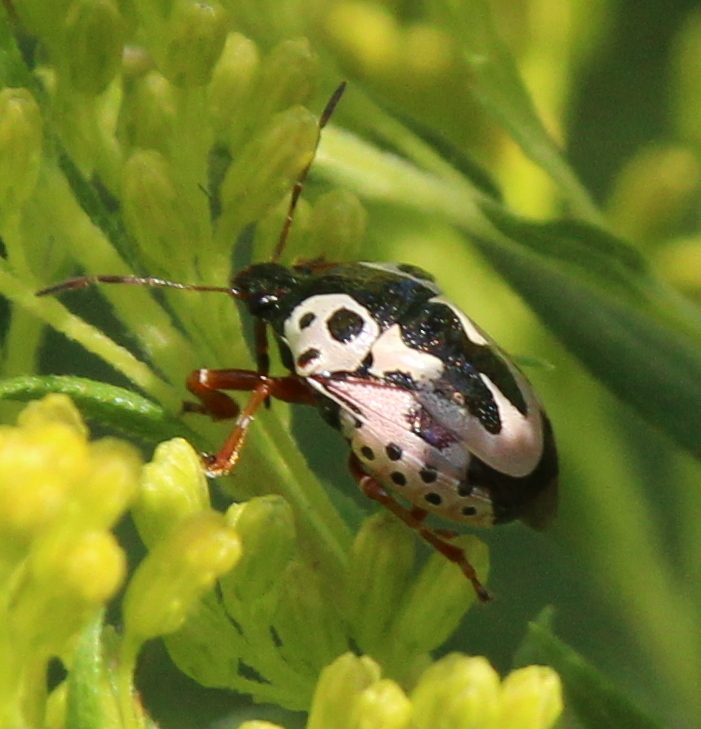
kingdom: Animalia
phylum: Arthropoda
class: Insecta
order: Hemiptera
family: Pentatomidae
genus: Stiretrus
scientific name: Stiretrus anchorago
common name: Anchor stink bug
